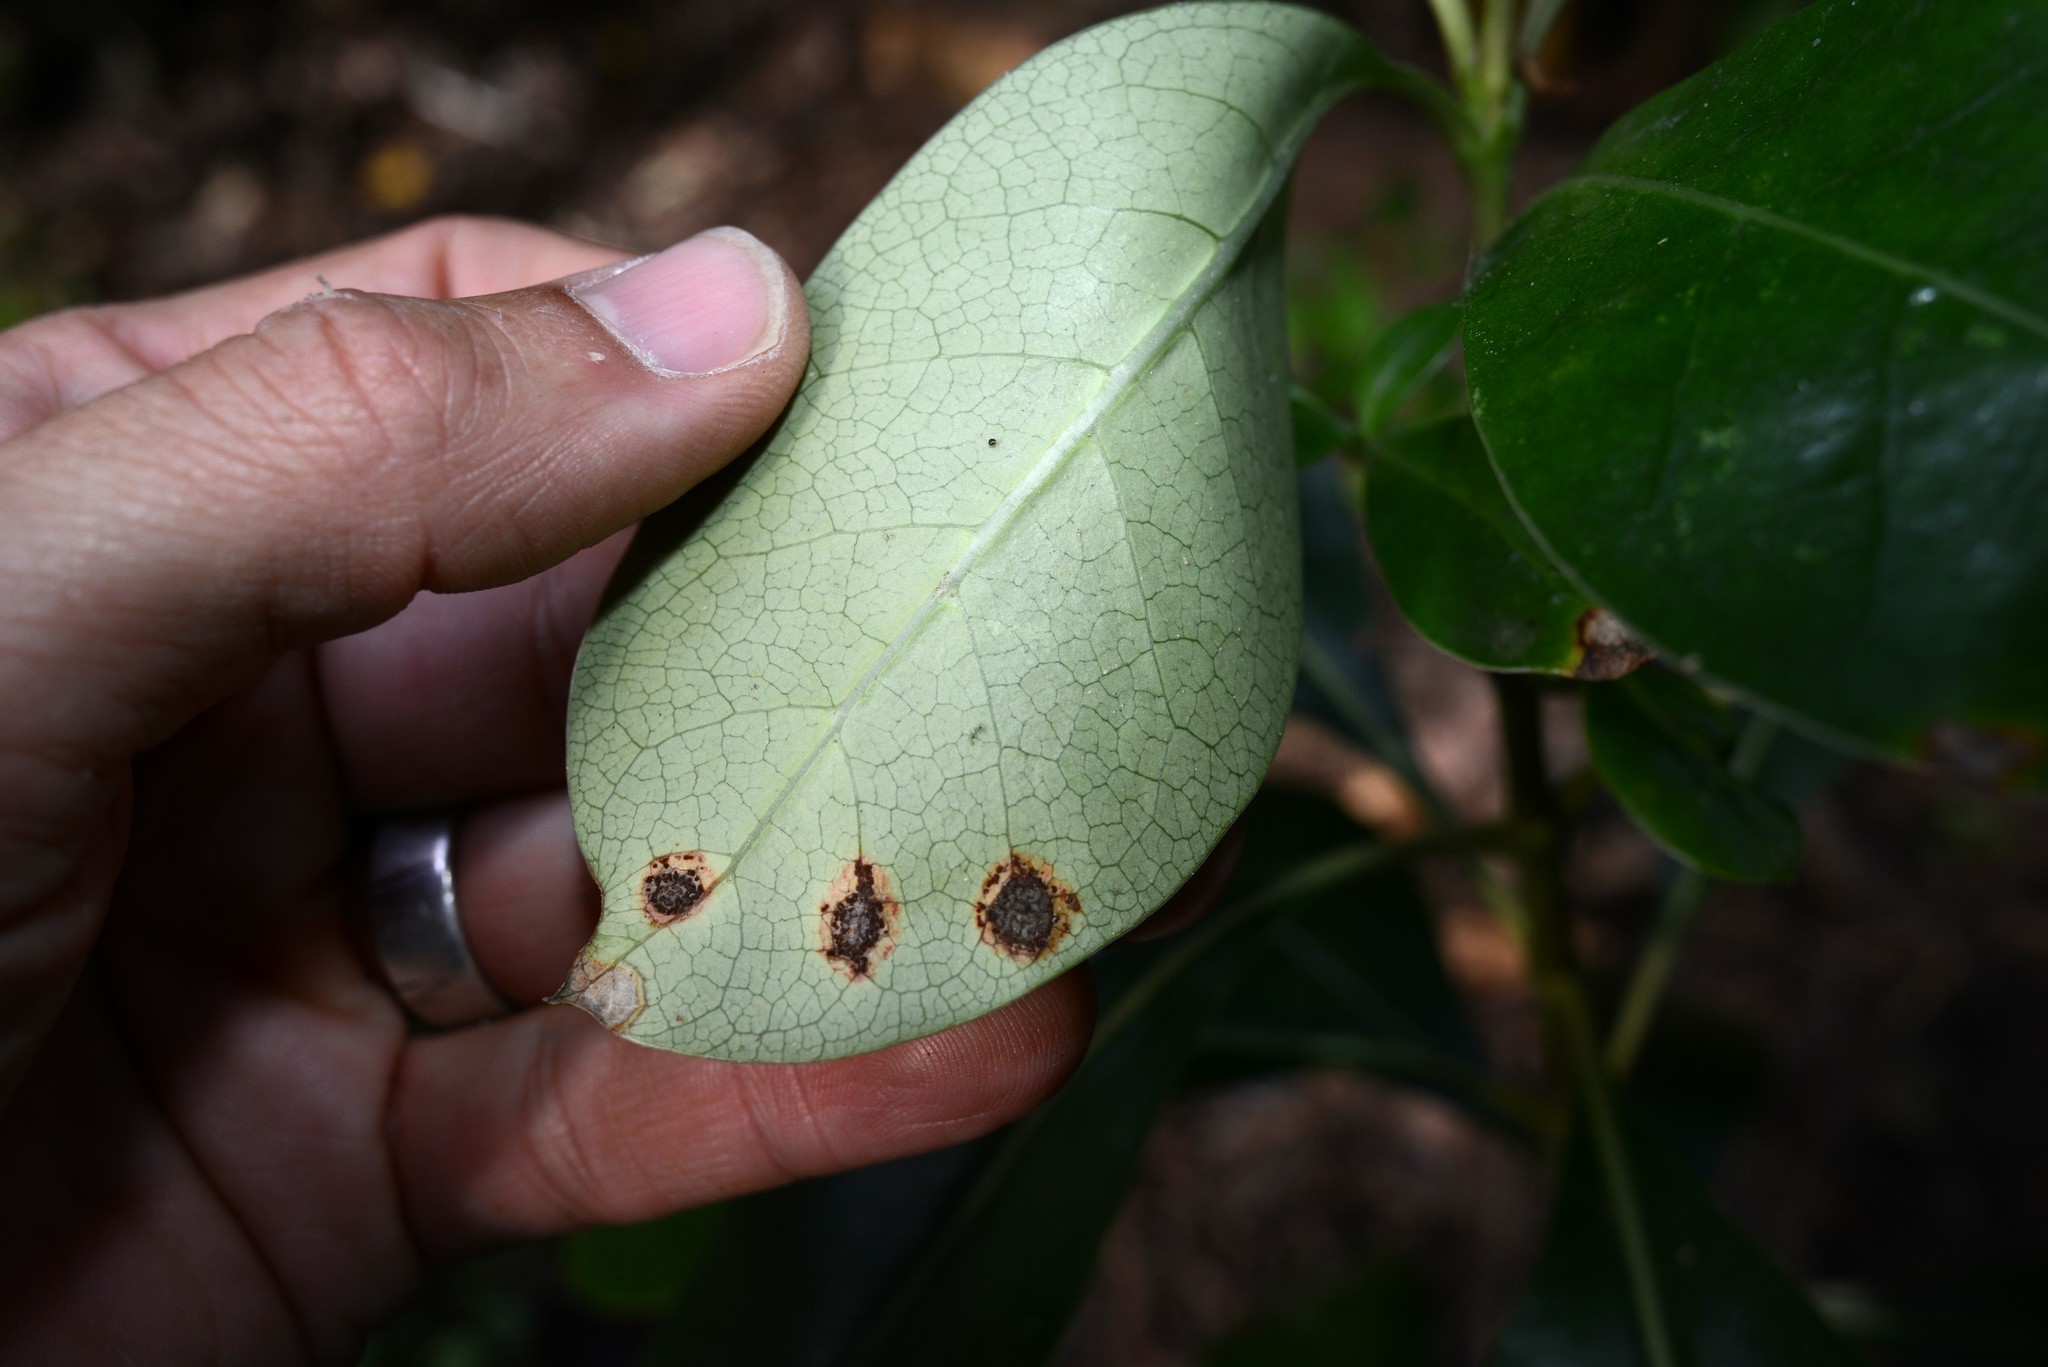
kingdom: Fungi
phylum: Basidiomycota
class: Pucciniomycetes
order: Pucciniales
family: Pucciniaceae
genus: Puccinia
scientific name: Puccinia coprosmae
